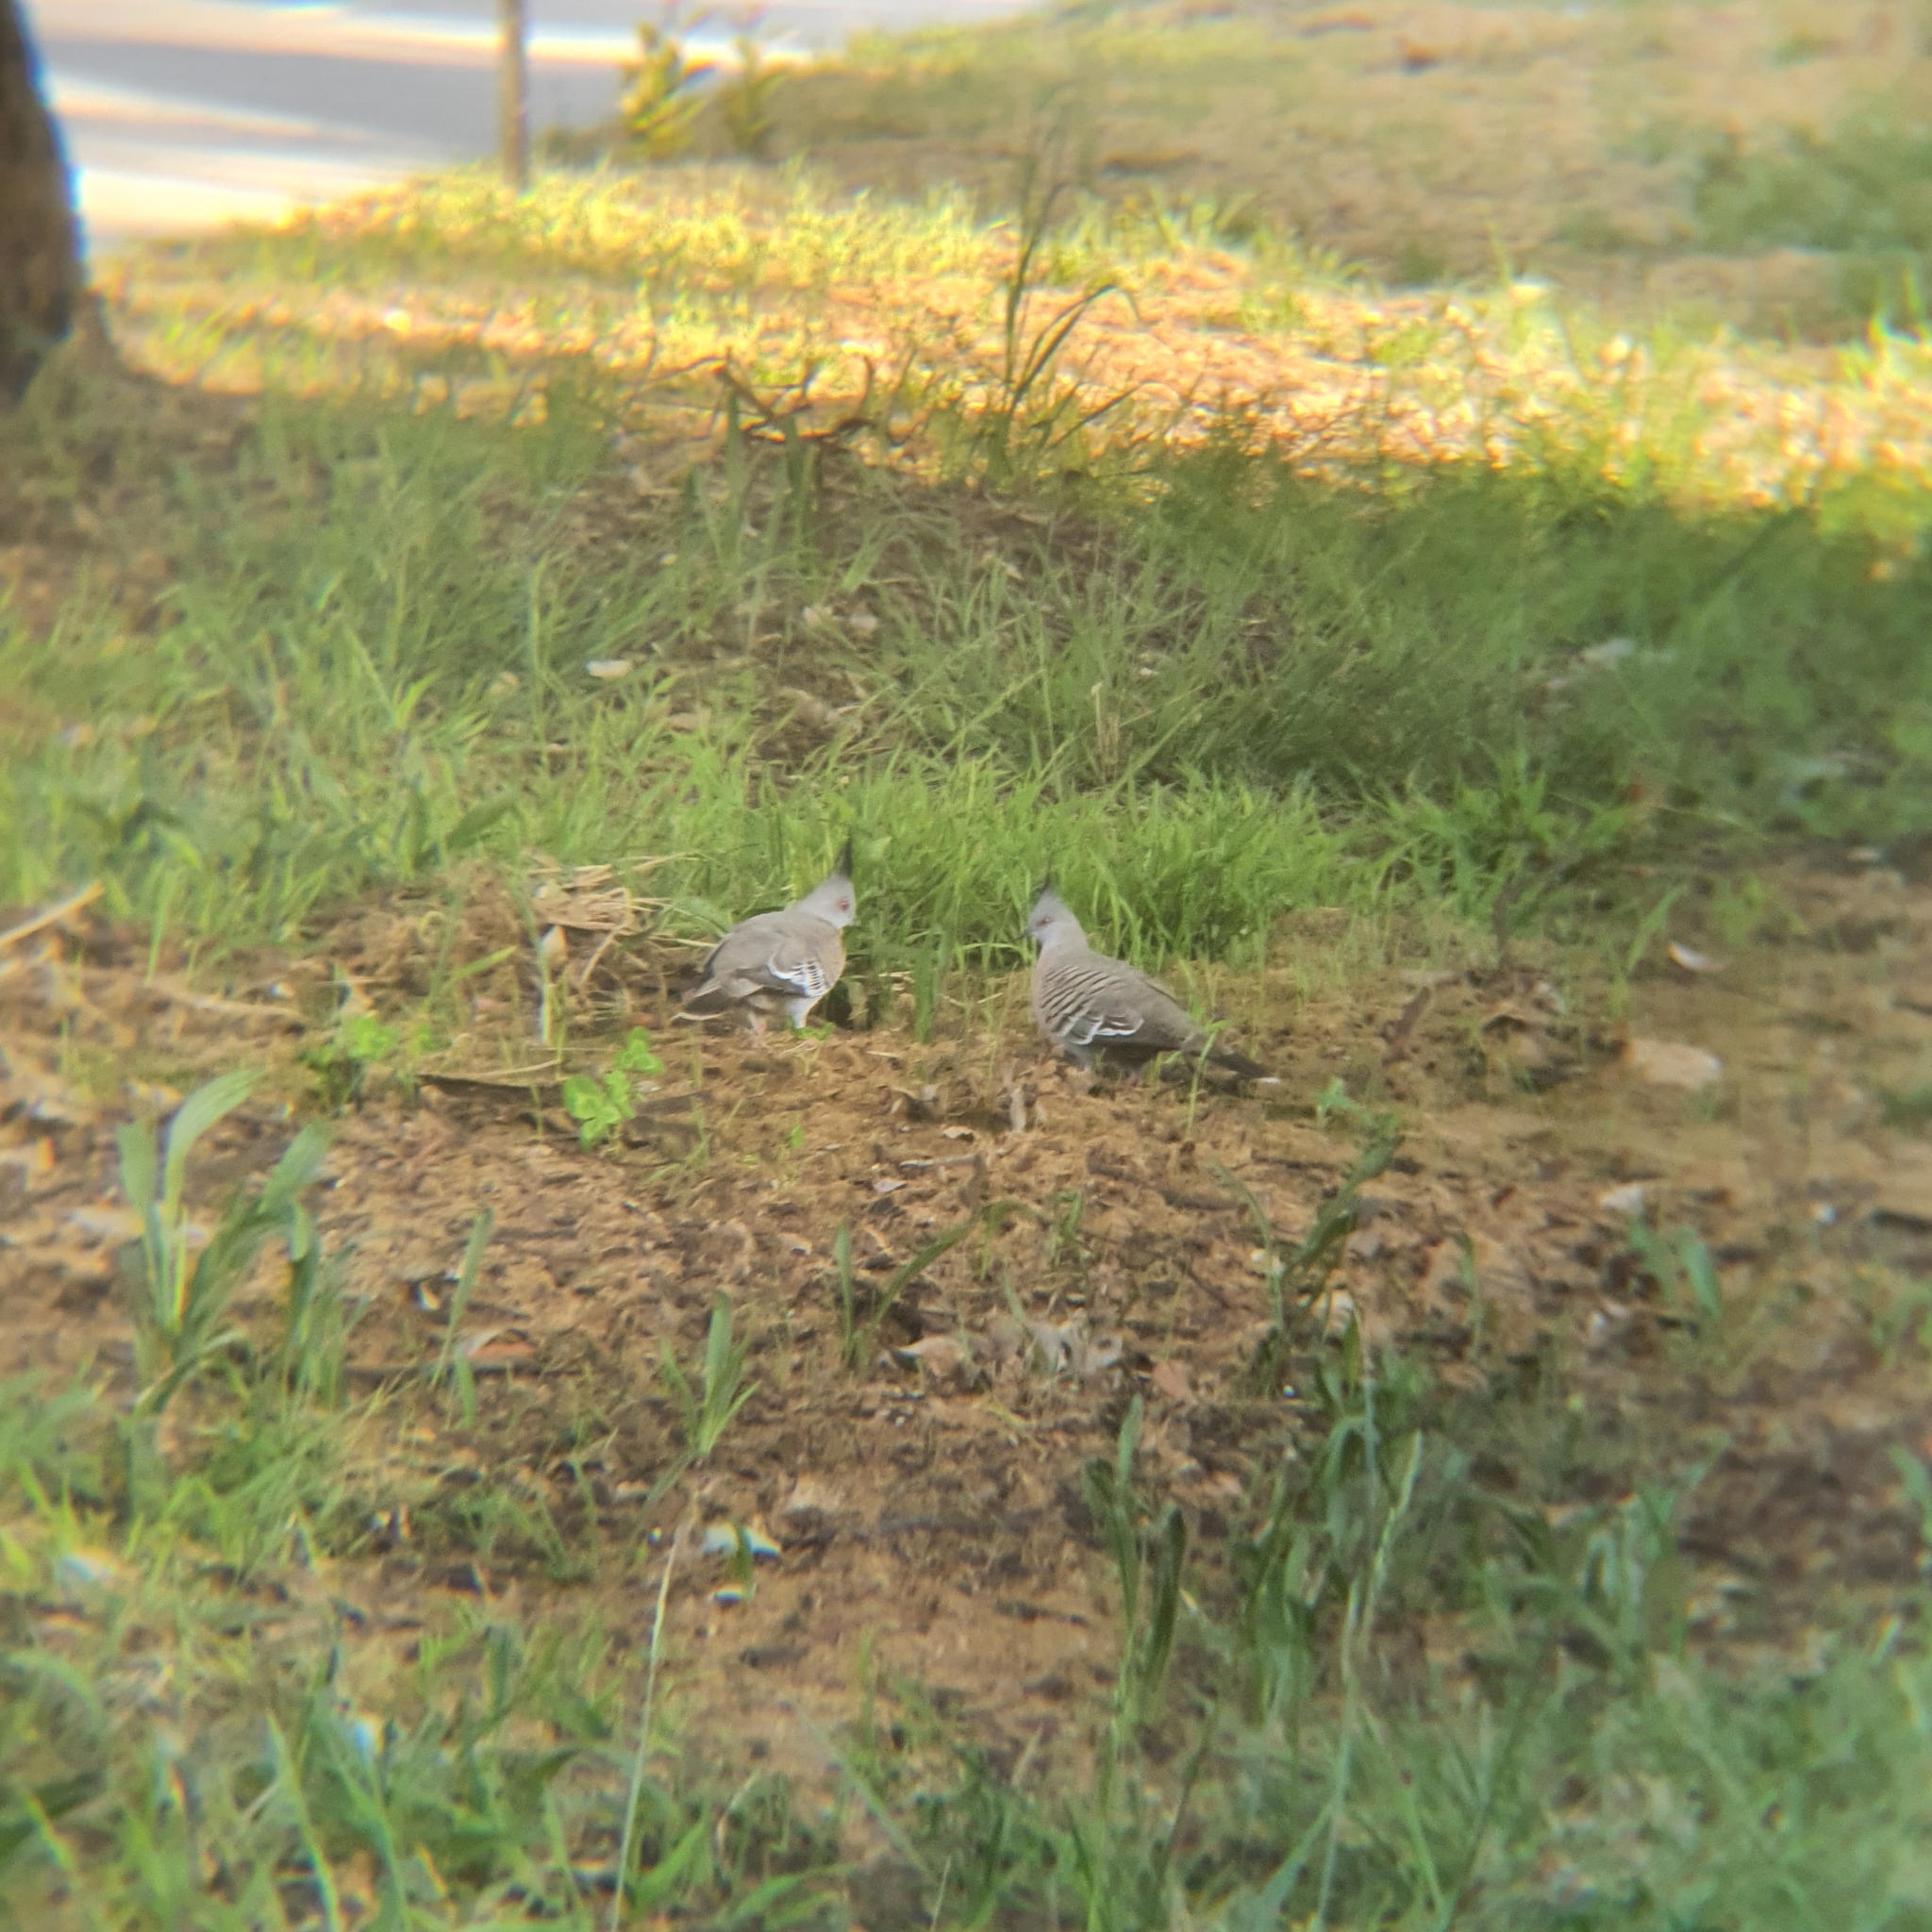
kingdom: Animalia
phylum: Chordata
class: Aves
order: Columbiformes
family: Columbidae
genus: Ocyphaps
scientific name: Ocyphaps lophotes
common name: Crested pigeon
